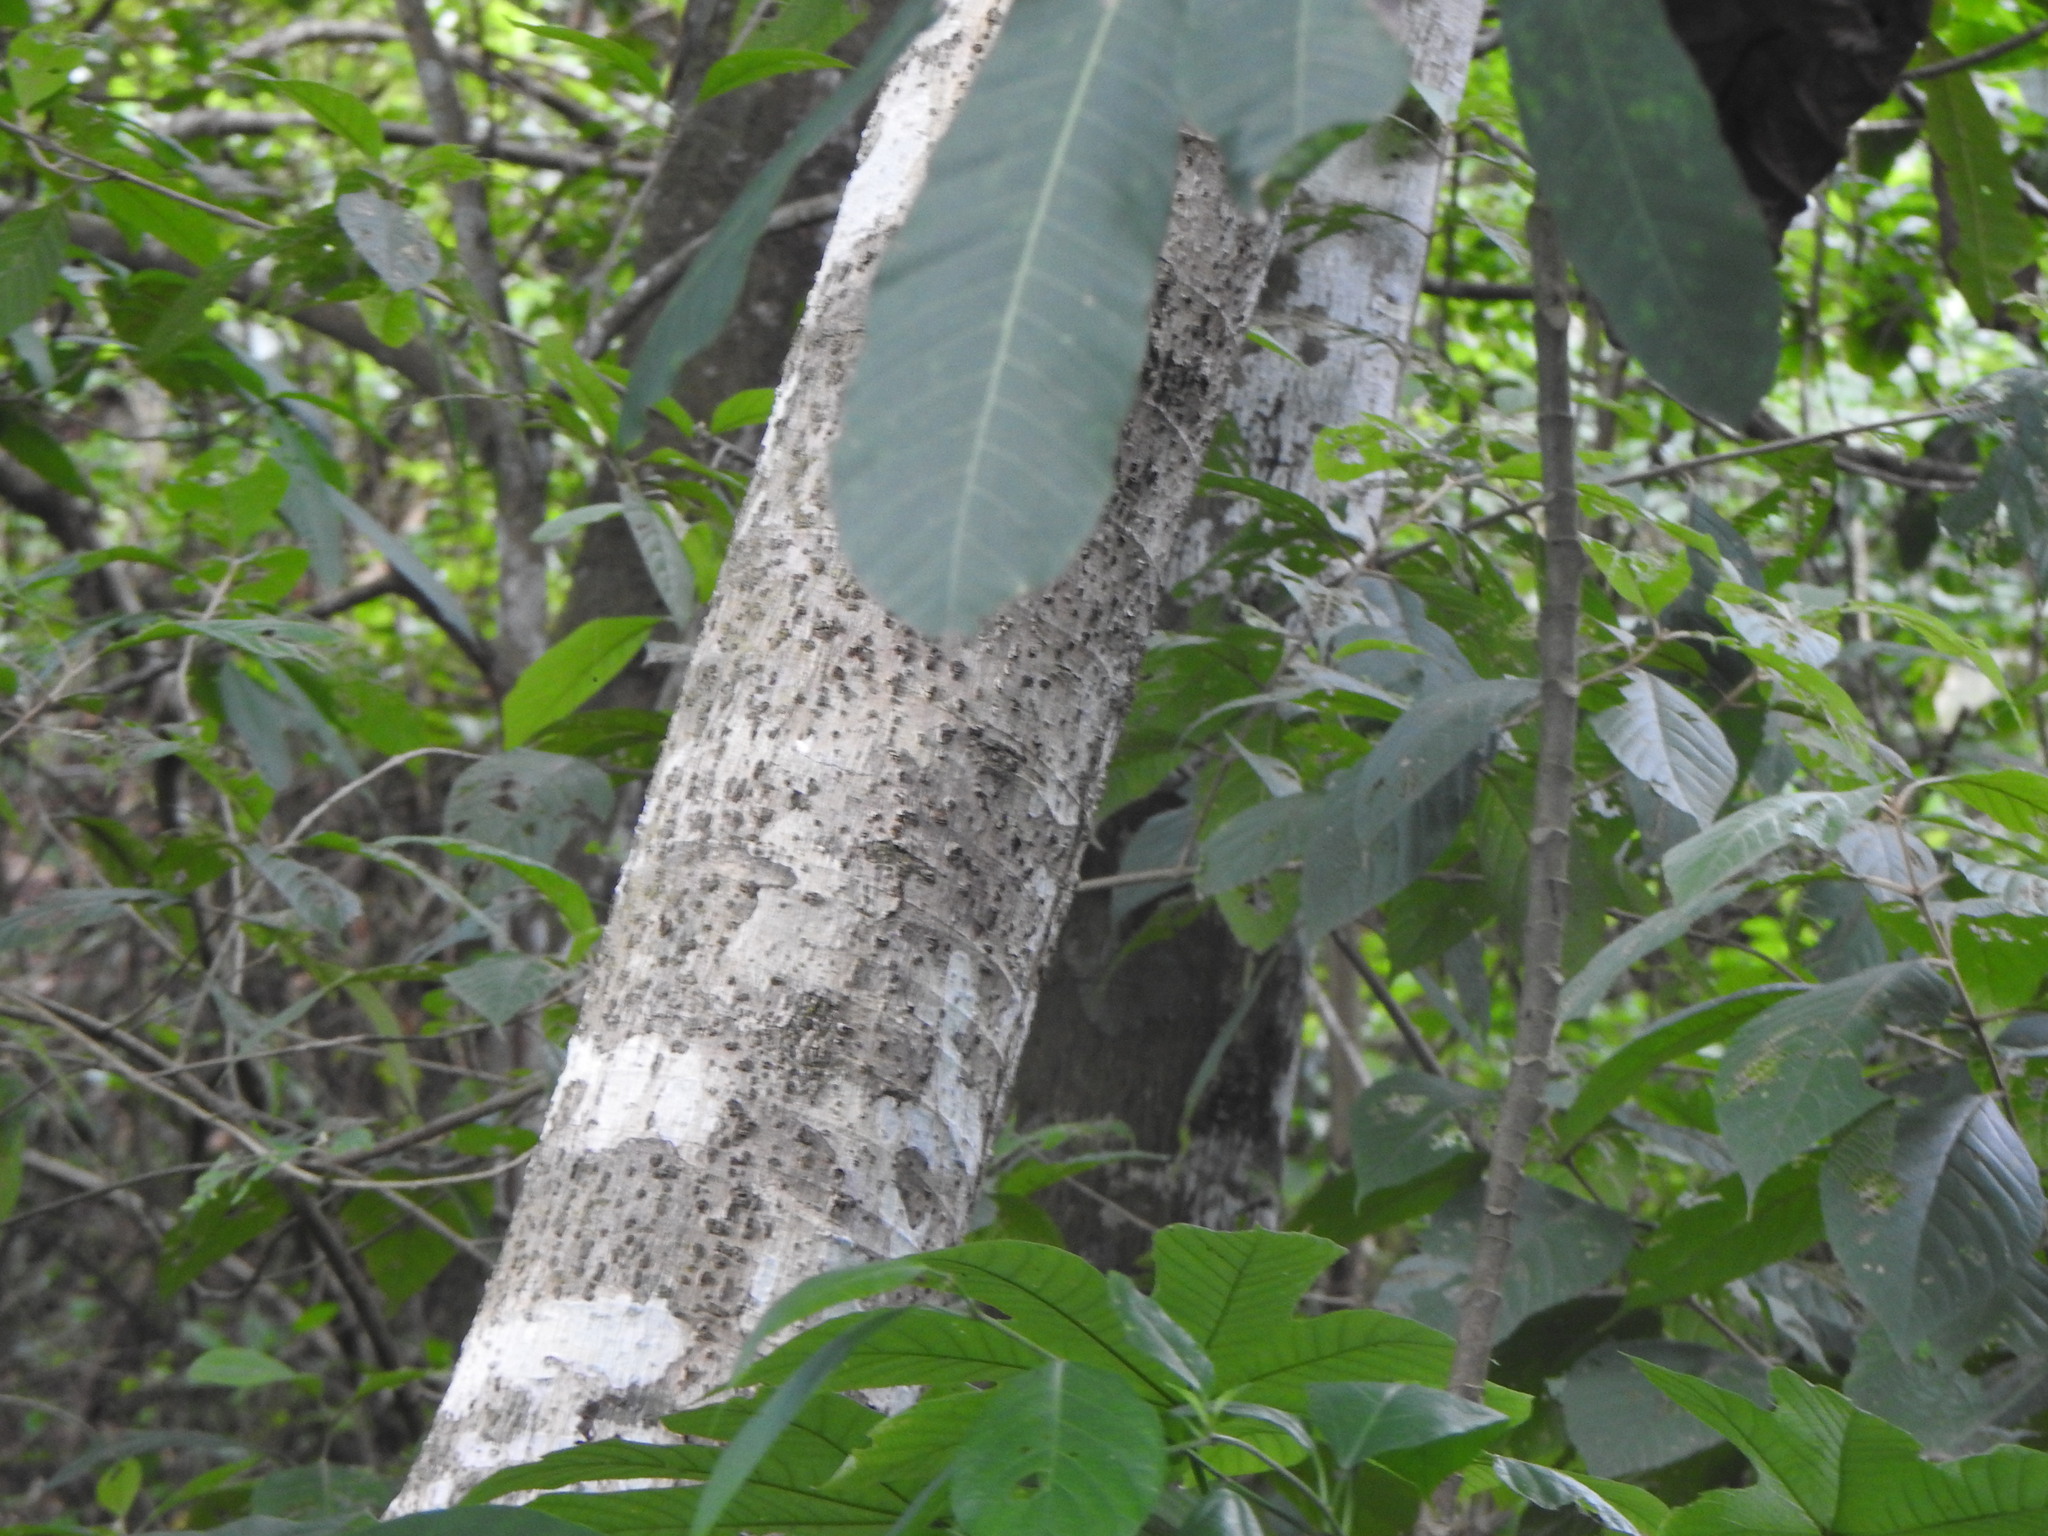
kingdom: Plantae
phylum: Tracheophyta
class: Magnoliopsida
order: Sapindales
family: Anacardiaceae
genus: Anacardium
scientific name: Anacardium excelsum
